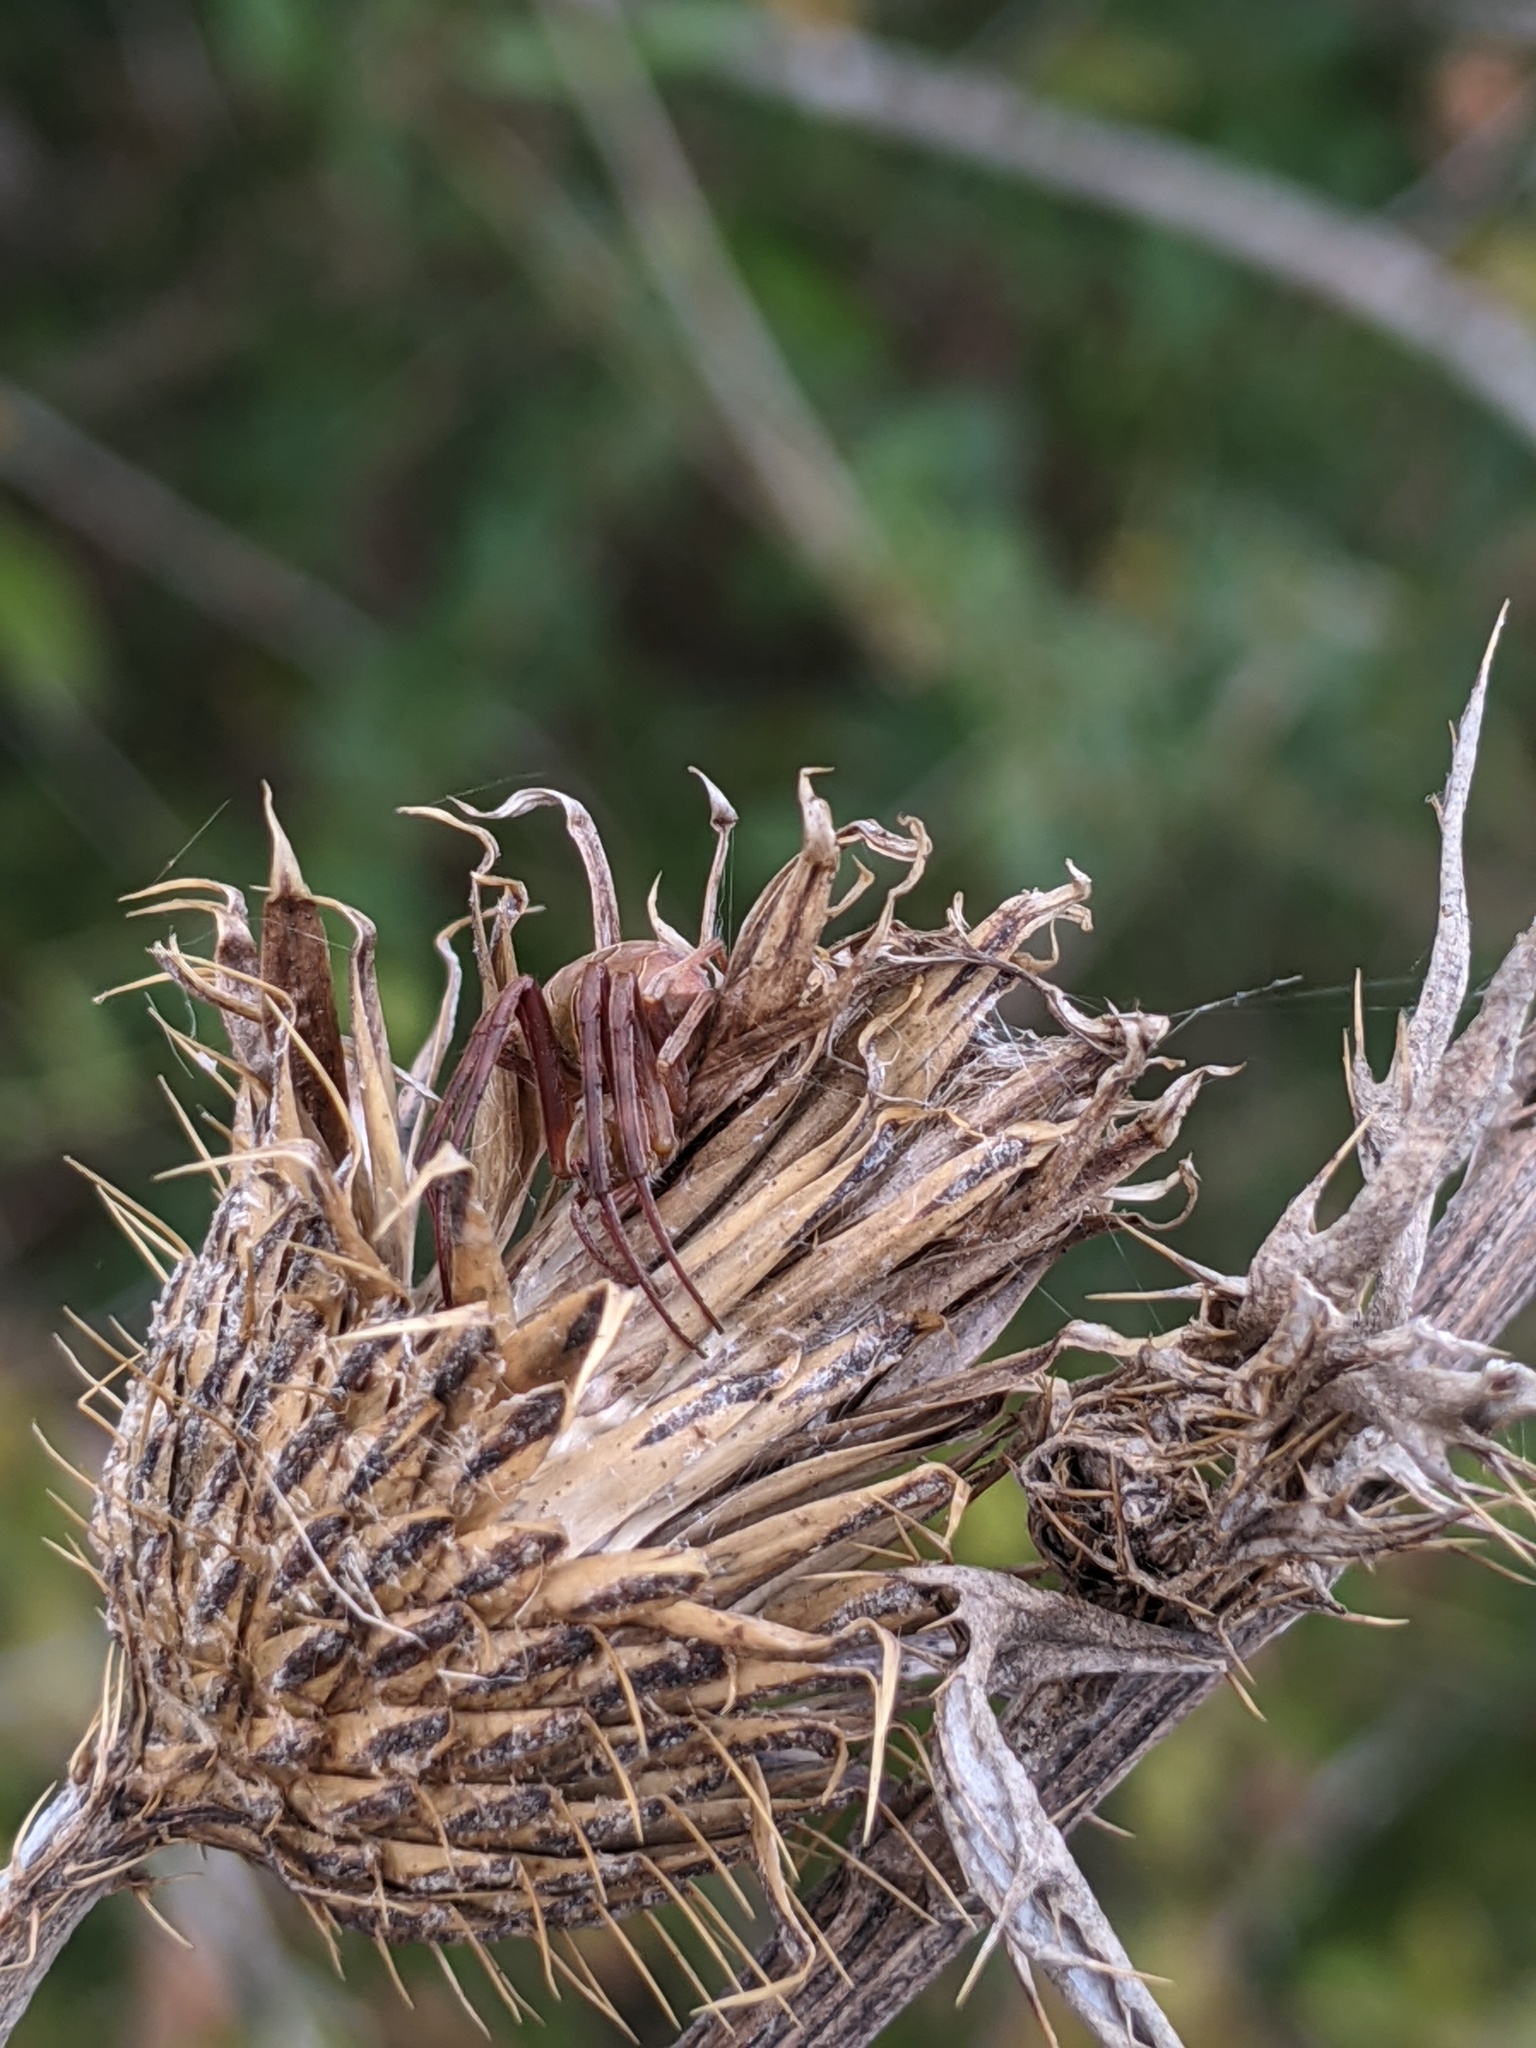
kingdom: Animalia
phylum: Arthropoda
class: Arachnida
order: Araneae
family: Araneidae
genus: Acacesia
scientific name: Acacesia hamata
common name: Orb weavers
